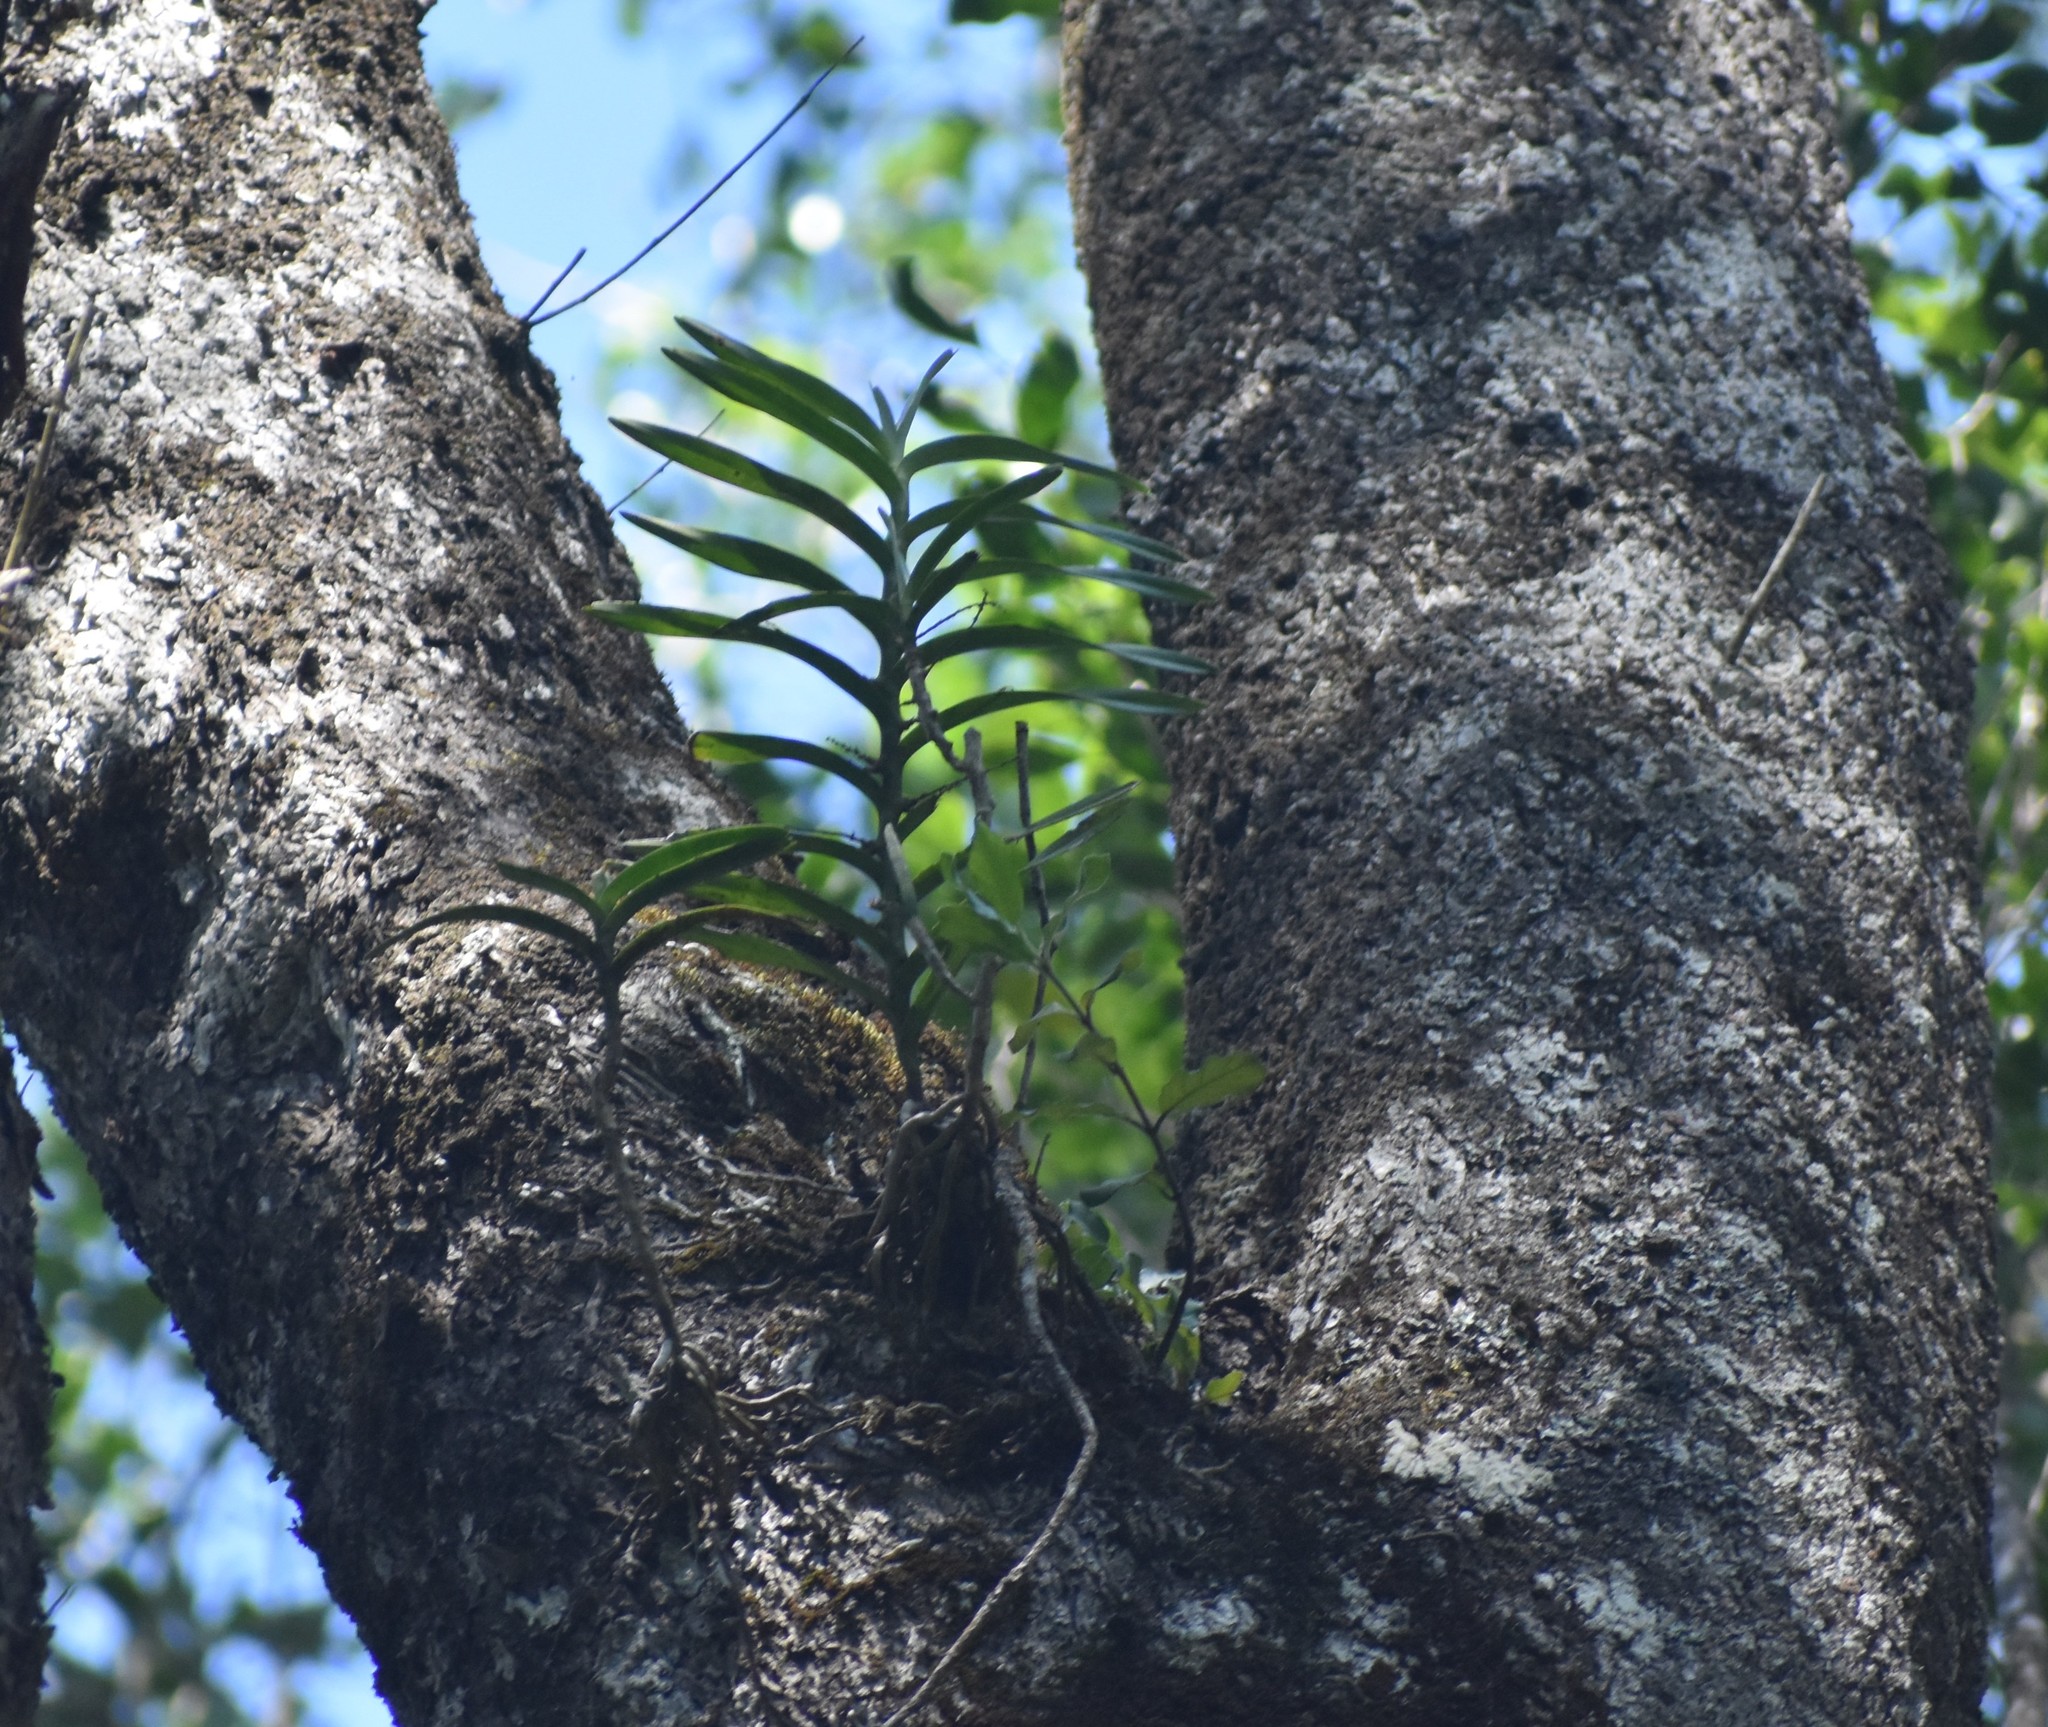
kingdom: Plantae
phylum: Tracheophyta
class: Liliopsida
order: Asparagales
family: Orchidaceae
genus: Tridactyle
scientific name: Tridactyle bicaudata
